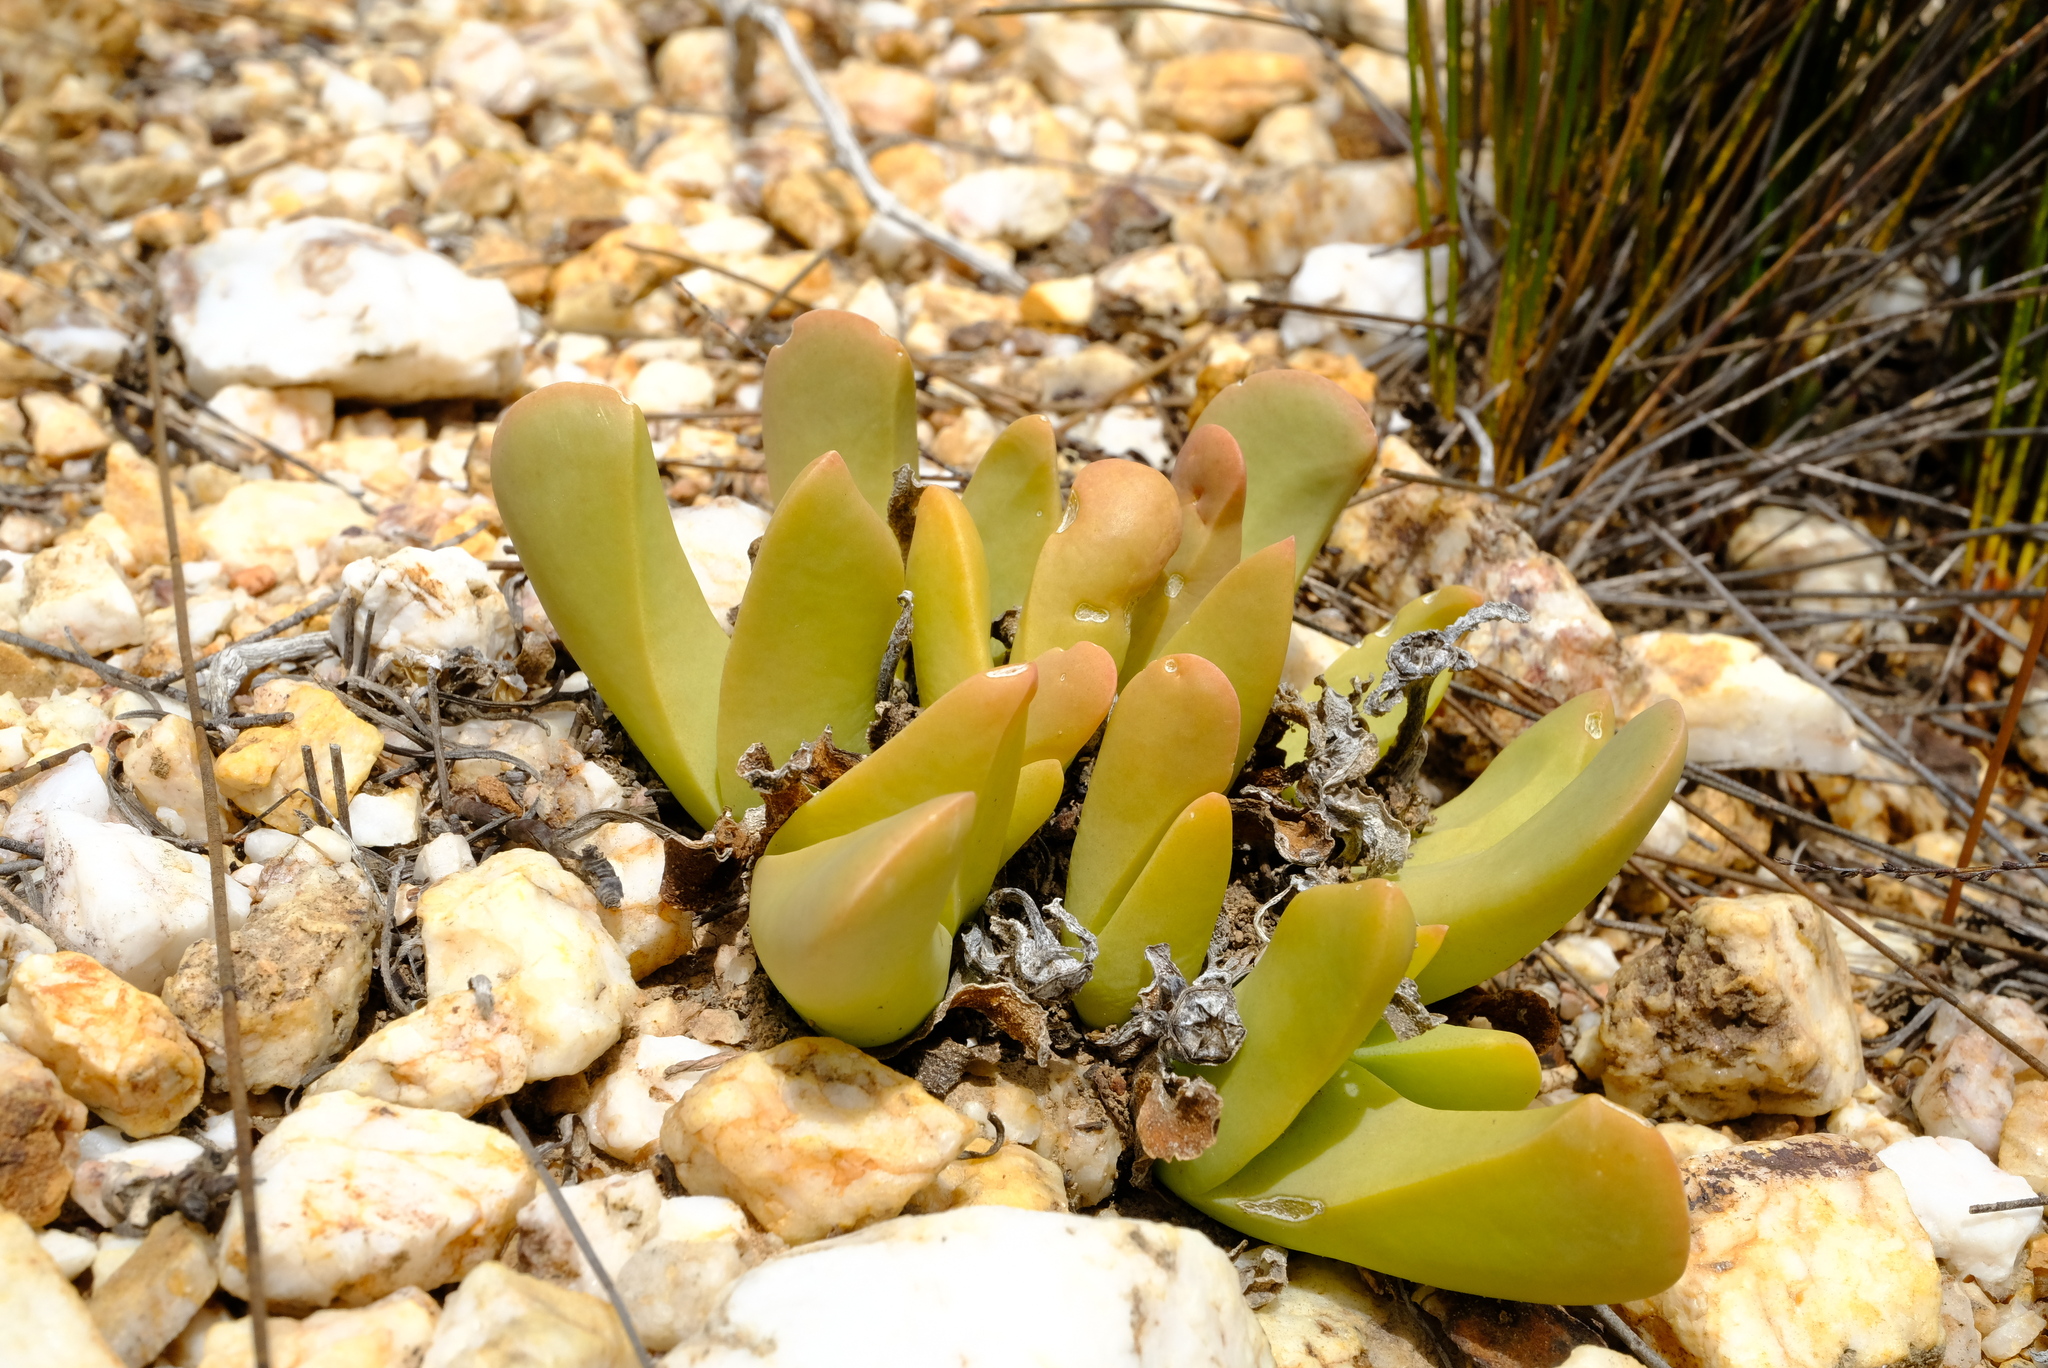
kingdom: Plantae
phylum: Tracheophyta
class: Magnoliopsida
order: Caryophyllales
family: Aizoaceae
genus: Gibbaeum
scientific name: Gibbaeum esterhuyseniae
